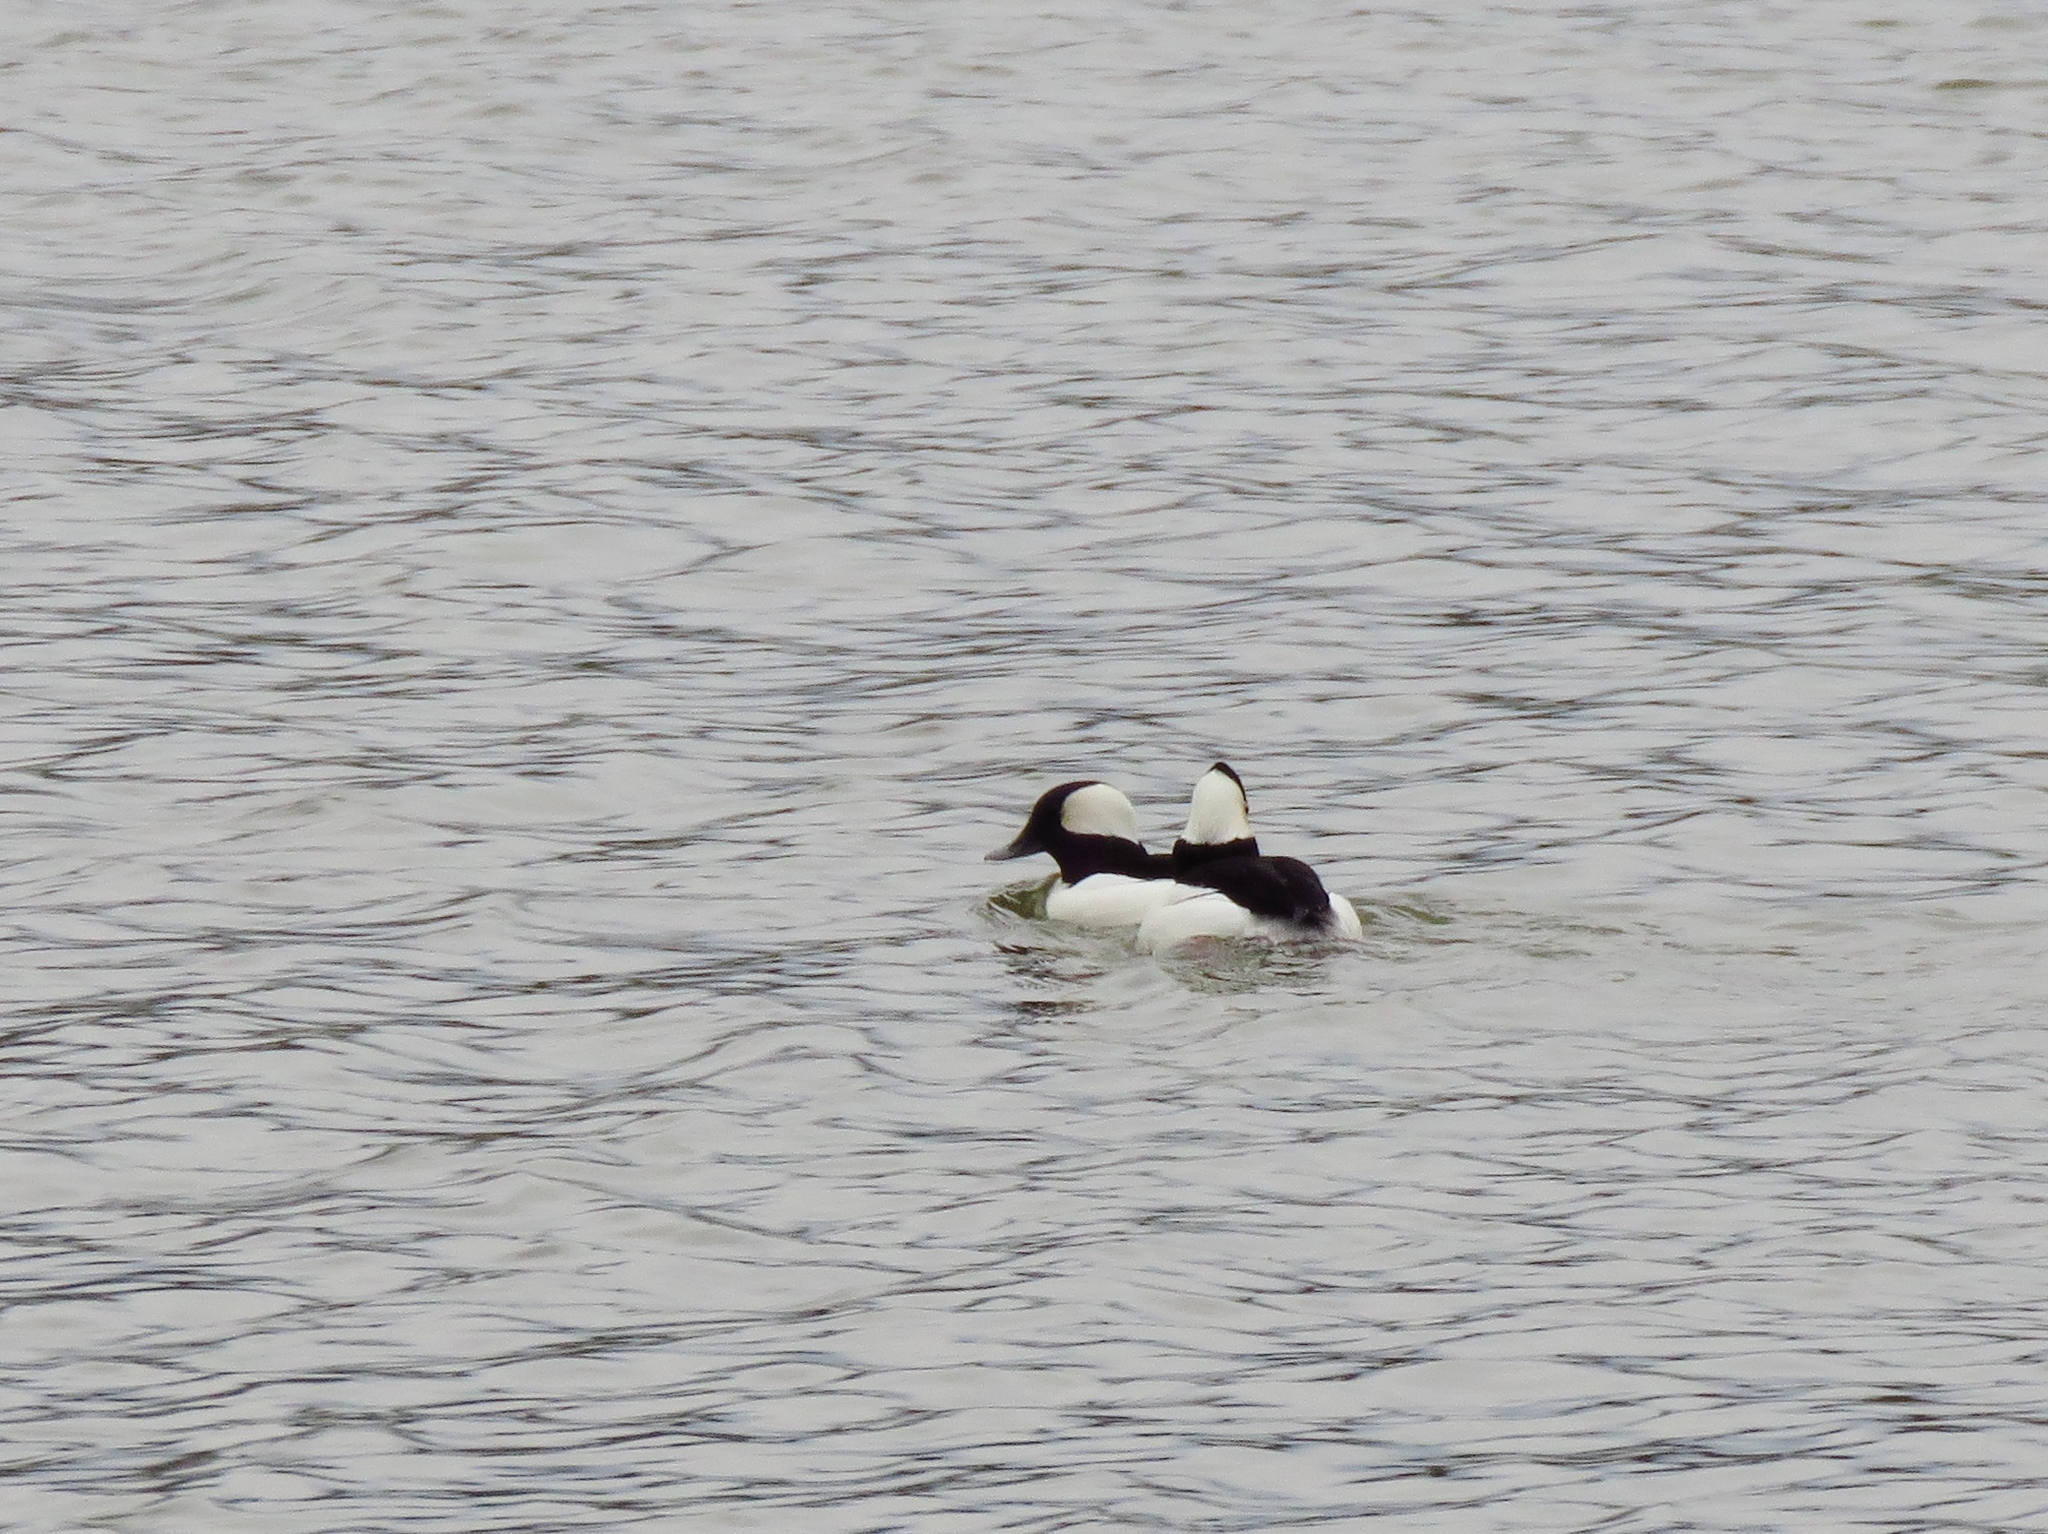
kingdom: Animalia
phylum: Chordata
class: Aves
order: Anseriformes
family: Anatidae
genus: Bucephala
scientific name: Bucephala albeola
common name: Bufflehead
